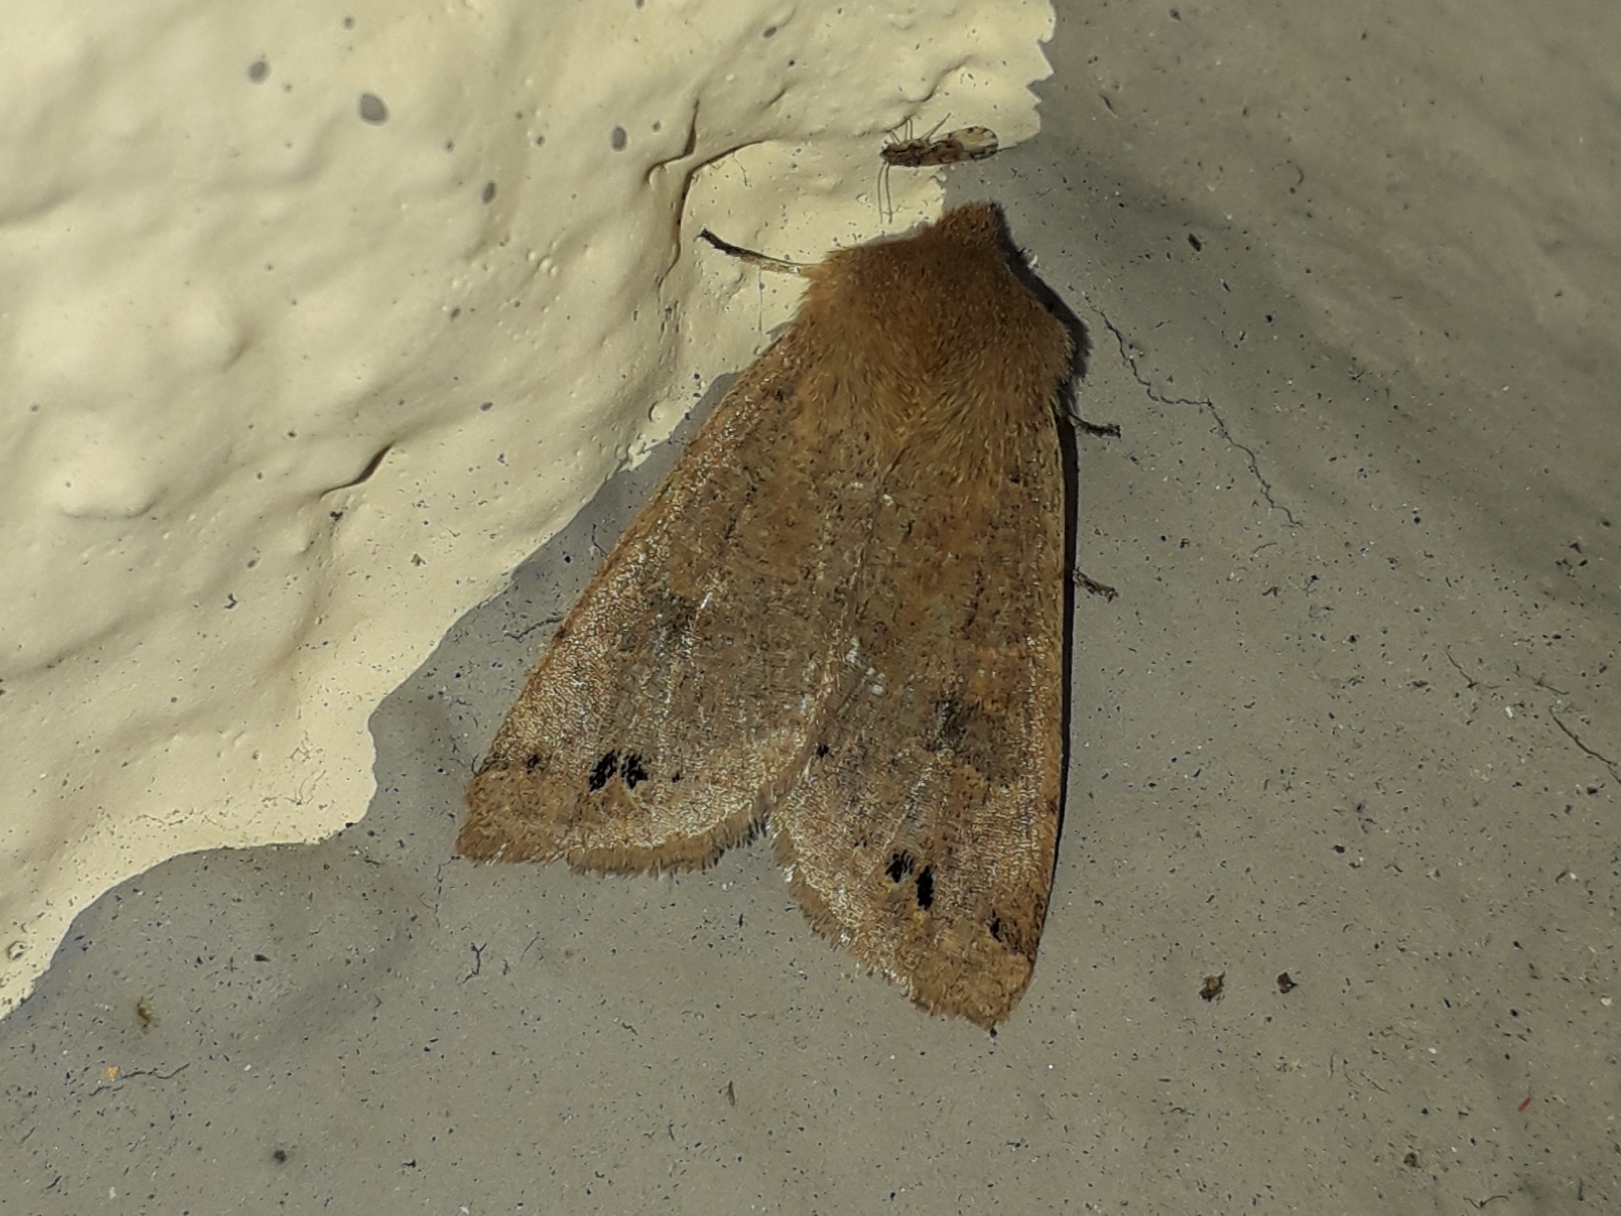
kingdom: Animalia
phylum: Arthropoda
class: Insecta
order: Lepidoptera
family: Noctuidae
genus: Anorthoa
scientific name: Anorthoa munda
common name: Twin-spotted quaker
